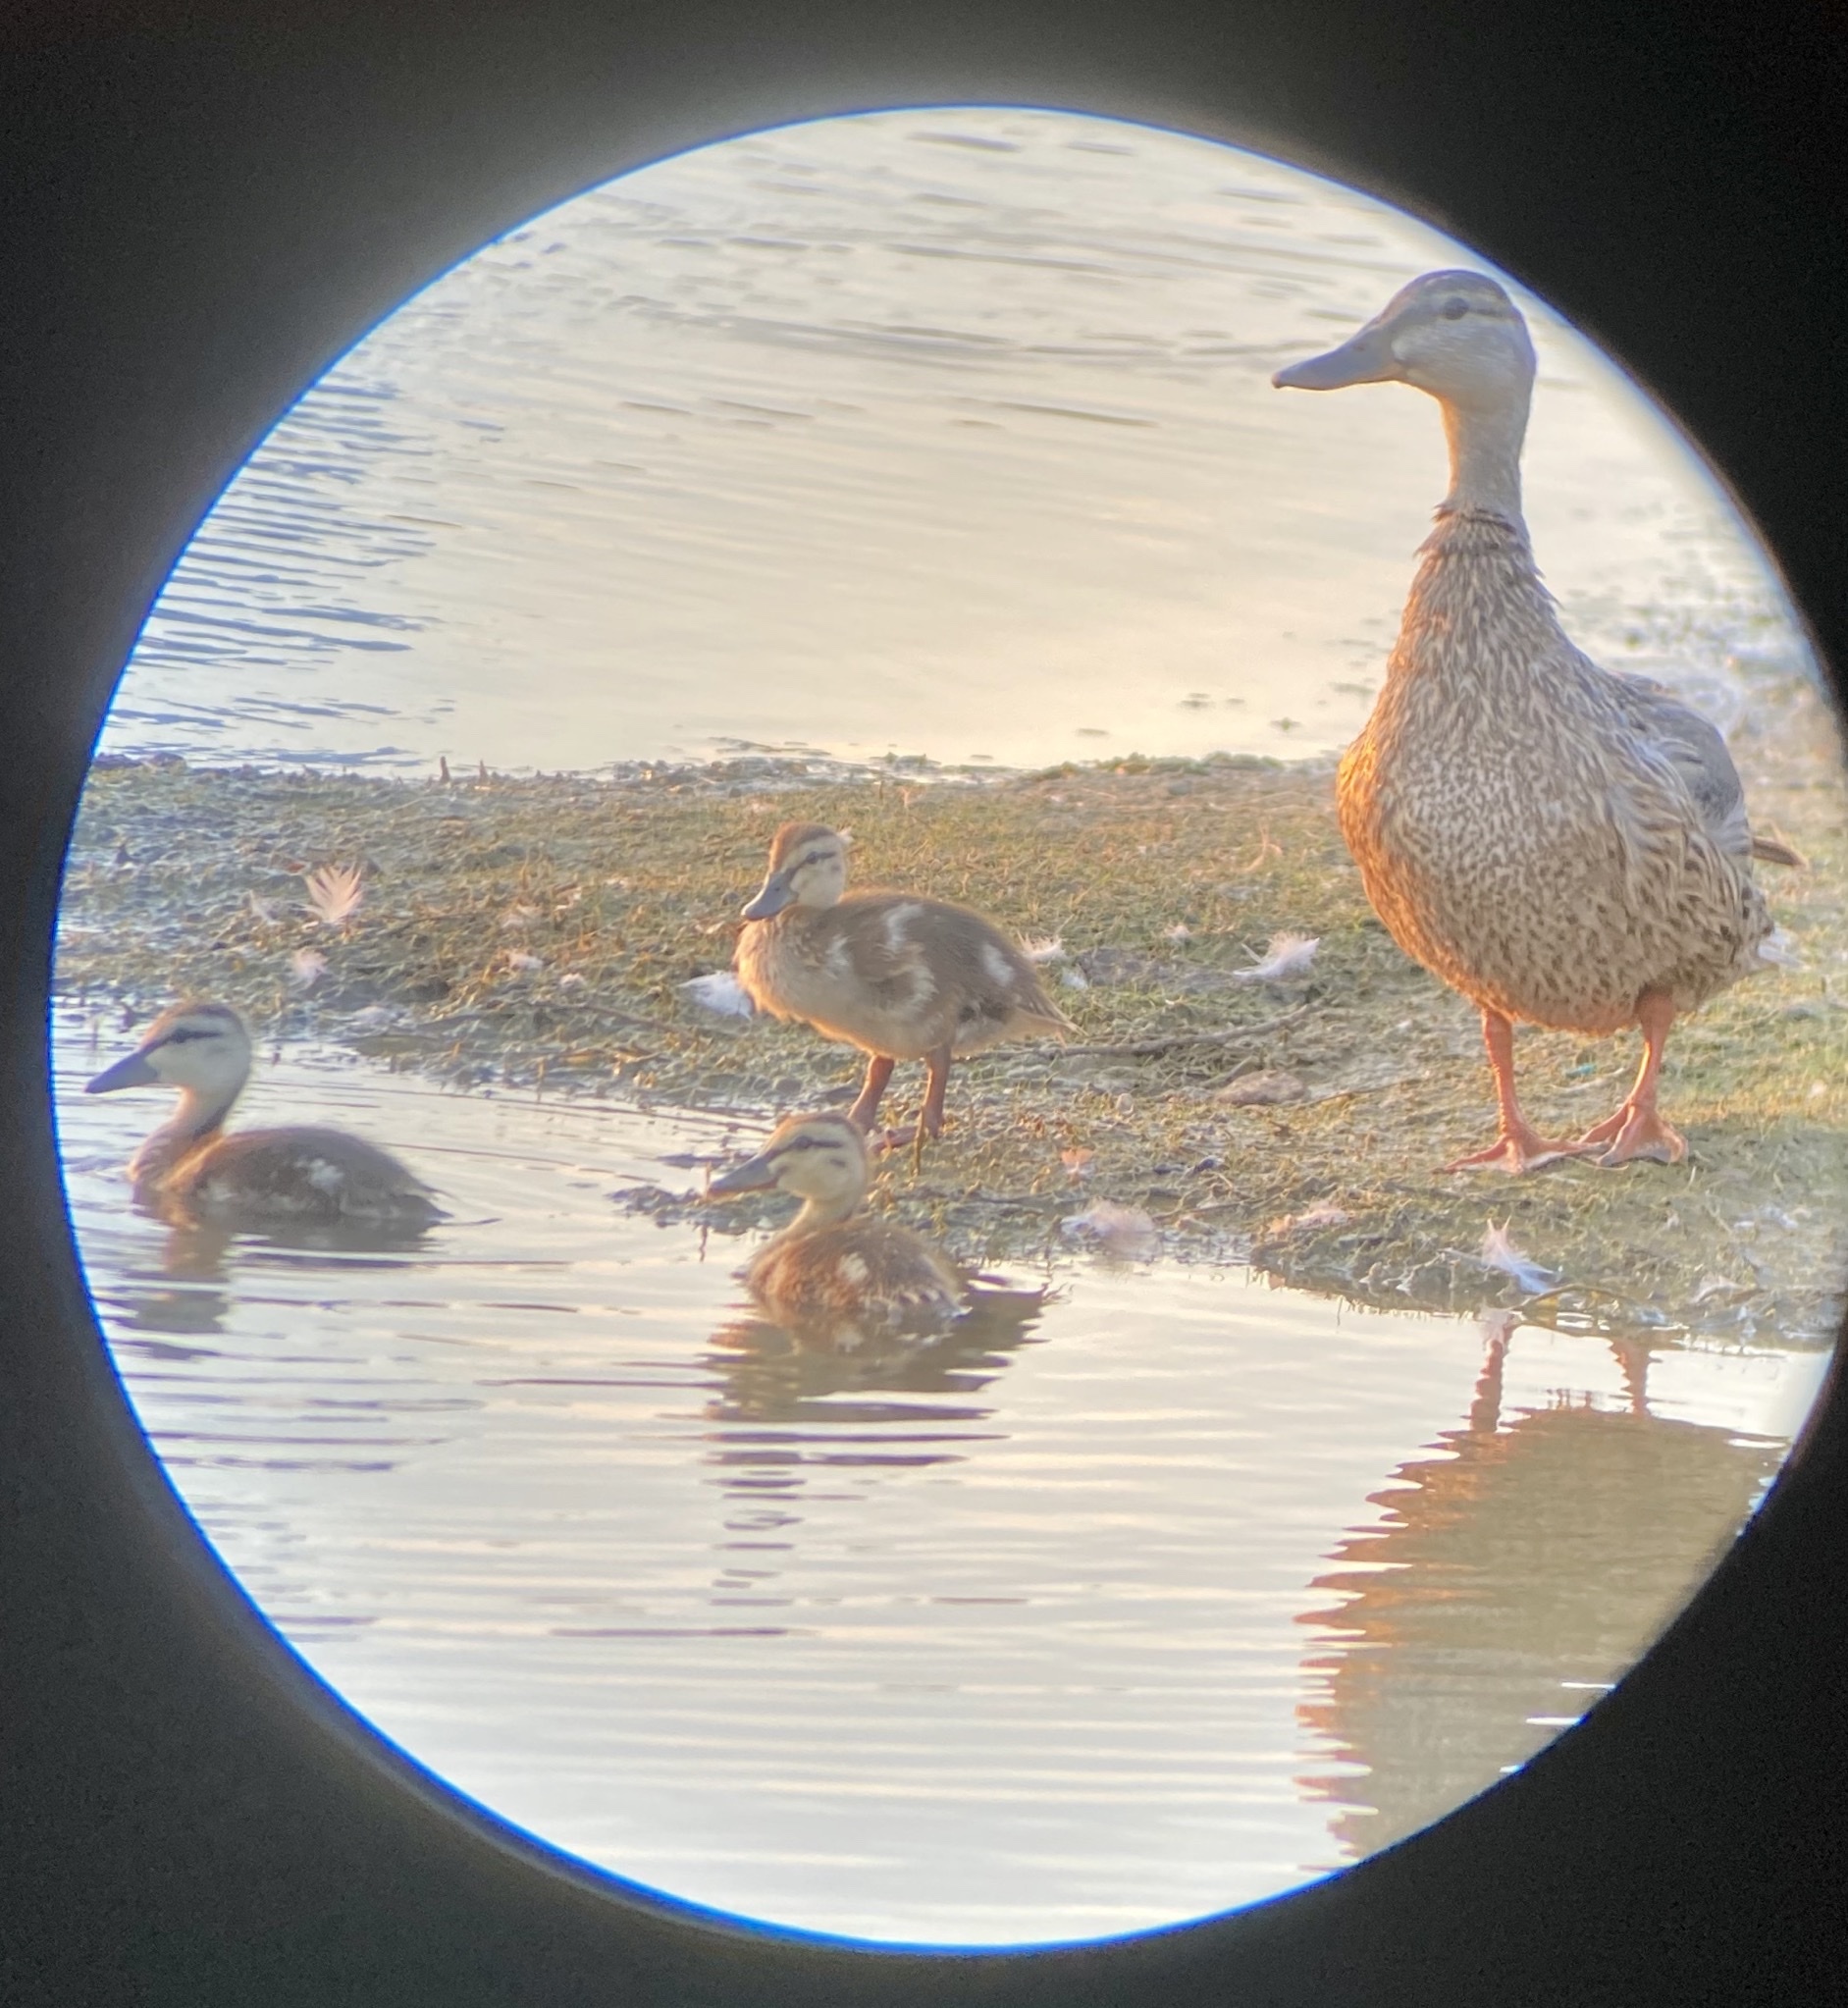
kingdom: Animalia
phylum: Chordata
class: Aves
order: Anseriformes
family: Anatidae
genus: Anas
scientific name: Anas platyrhynchos
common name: Mallard
